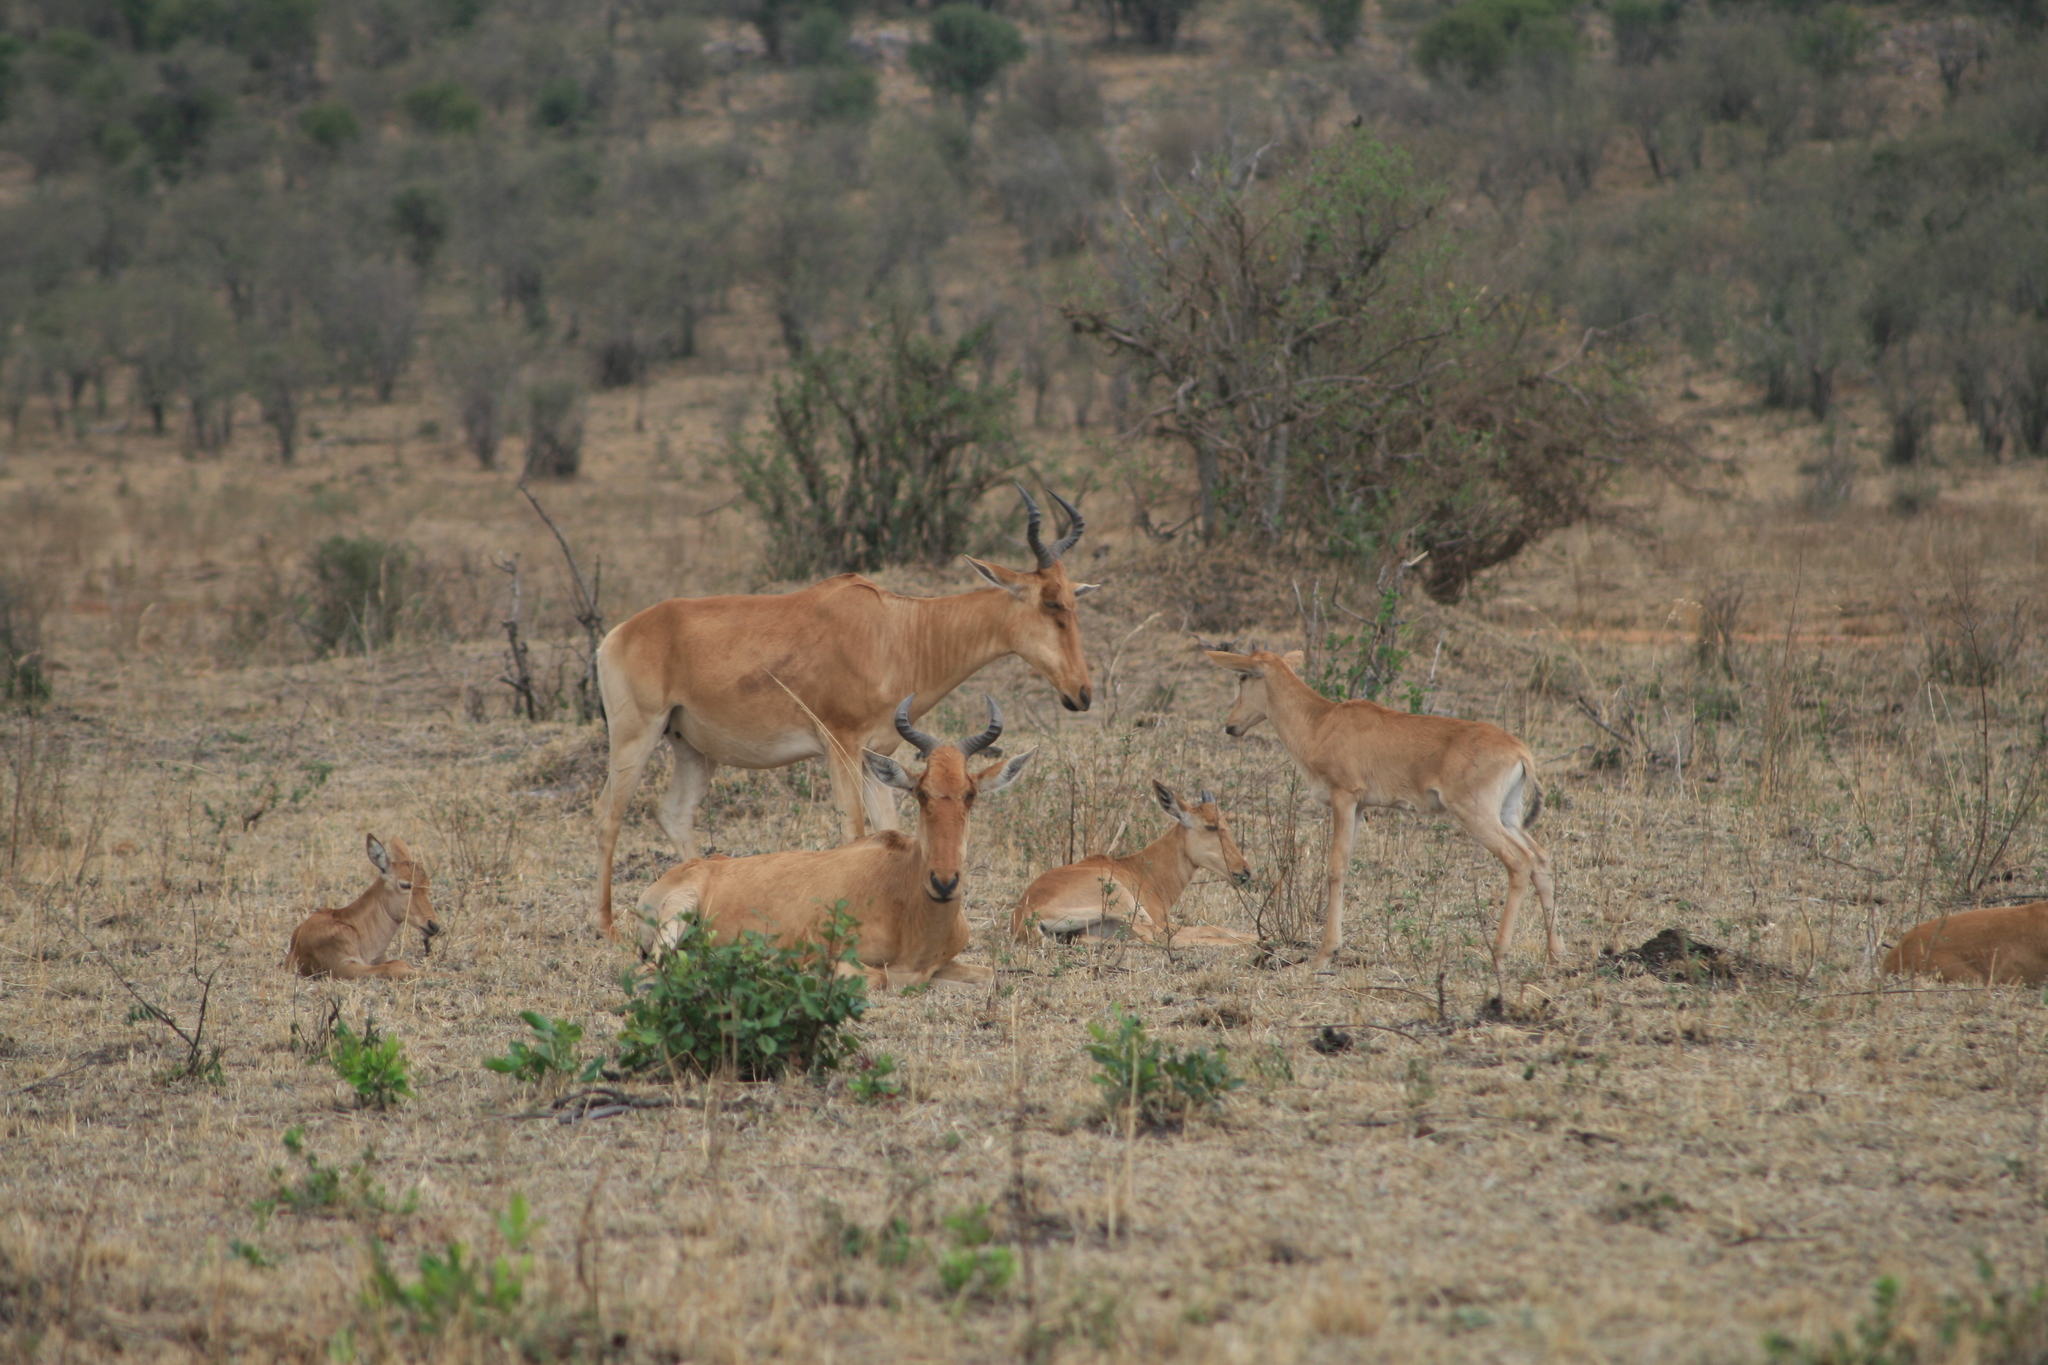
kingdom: Animalia
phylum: Chordata
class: Mammalia
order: Artiodactyla
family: Bovidae
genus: Alcelaphus
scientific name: Alcelaphus buselaphus
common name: Hartebeest
